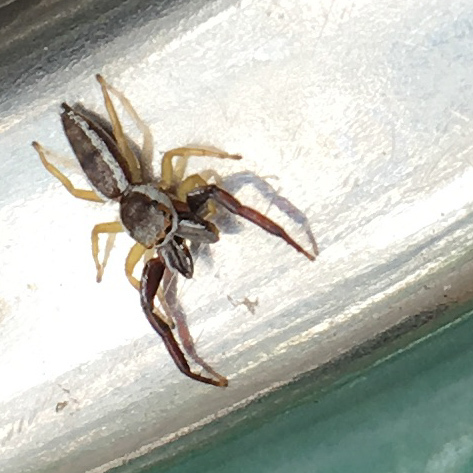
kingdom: Animalia
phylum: Arthropoda
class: Arachnida
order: Araneae
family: Salticidae
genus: Hentzia
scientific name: Hentzia palmarum
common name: Common hentz jumping spider
